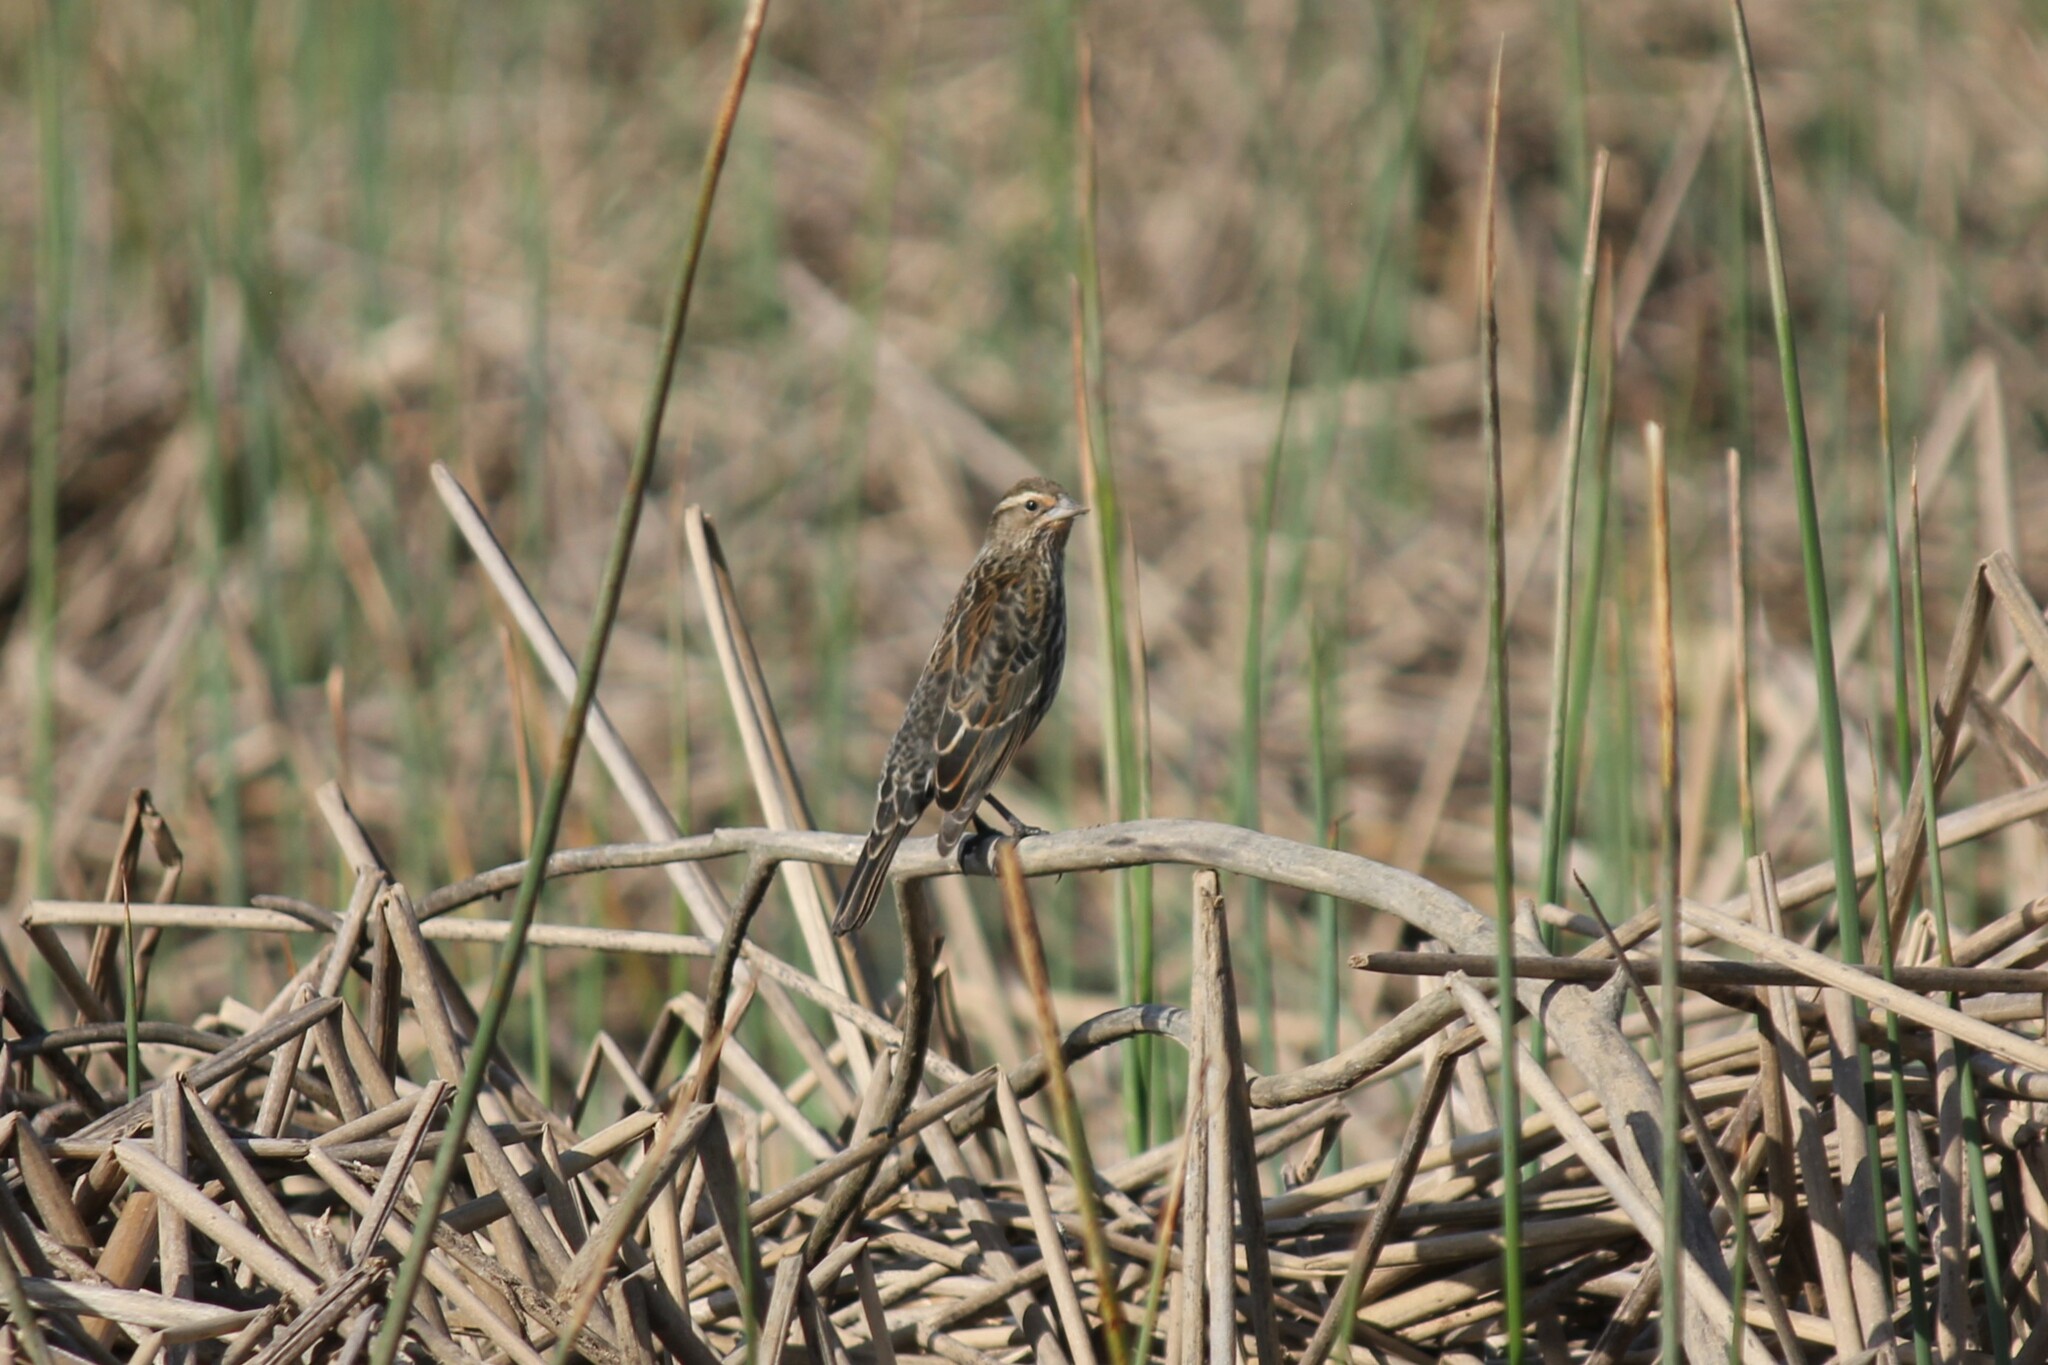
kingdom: Animalia
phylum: Chordata
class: Aves
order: Passeriformes
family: Icteridae
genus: Agelaius
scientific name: Agelaius phoeniceus
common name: Red-winged blackbird
